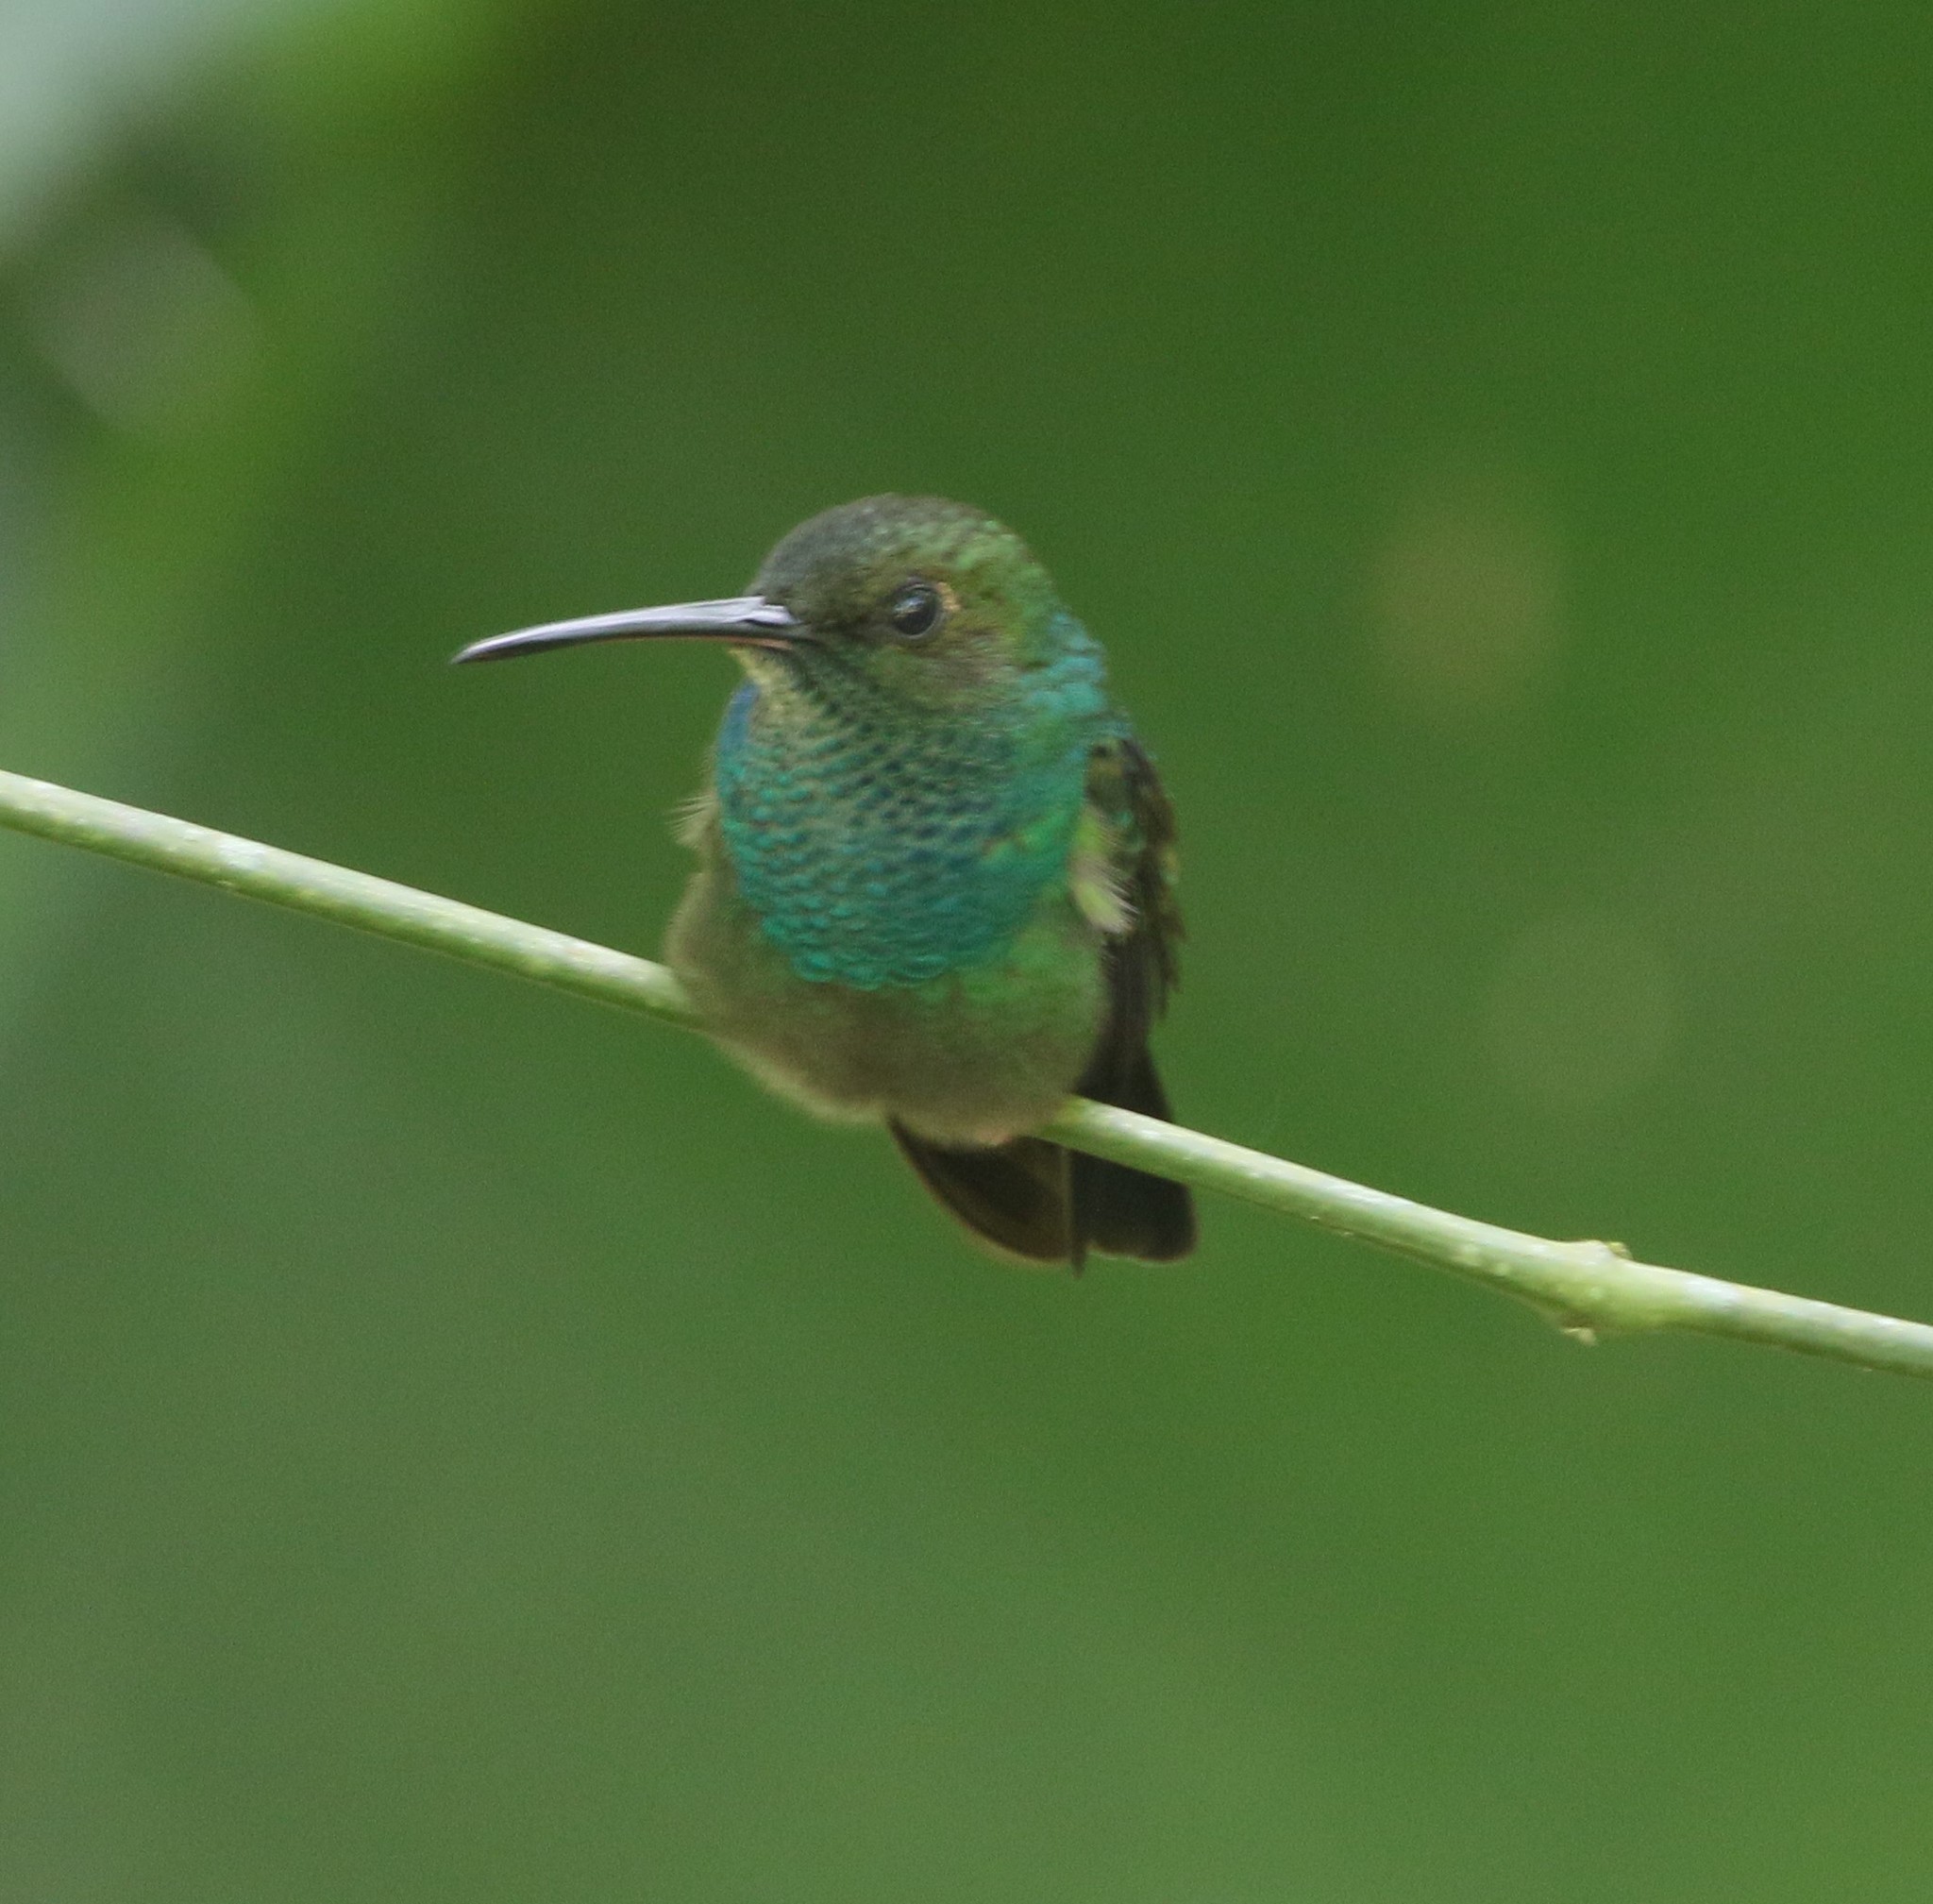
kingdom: Animalia
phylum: Chordata
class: Aves
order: Apodiformes
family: Trochilidae
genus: Chalybura
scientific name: Chalybura buffonii
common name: White-vented plumeleteer
